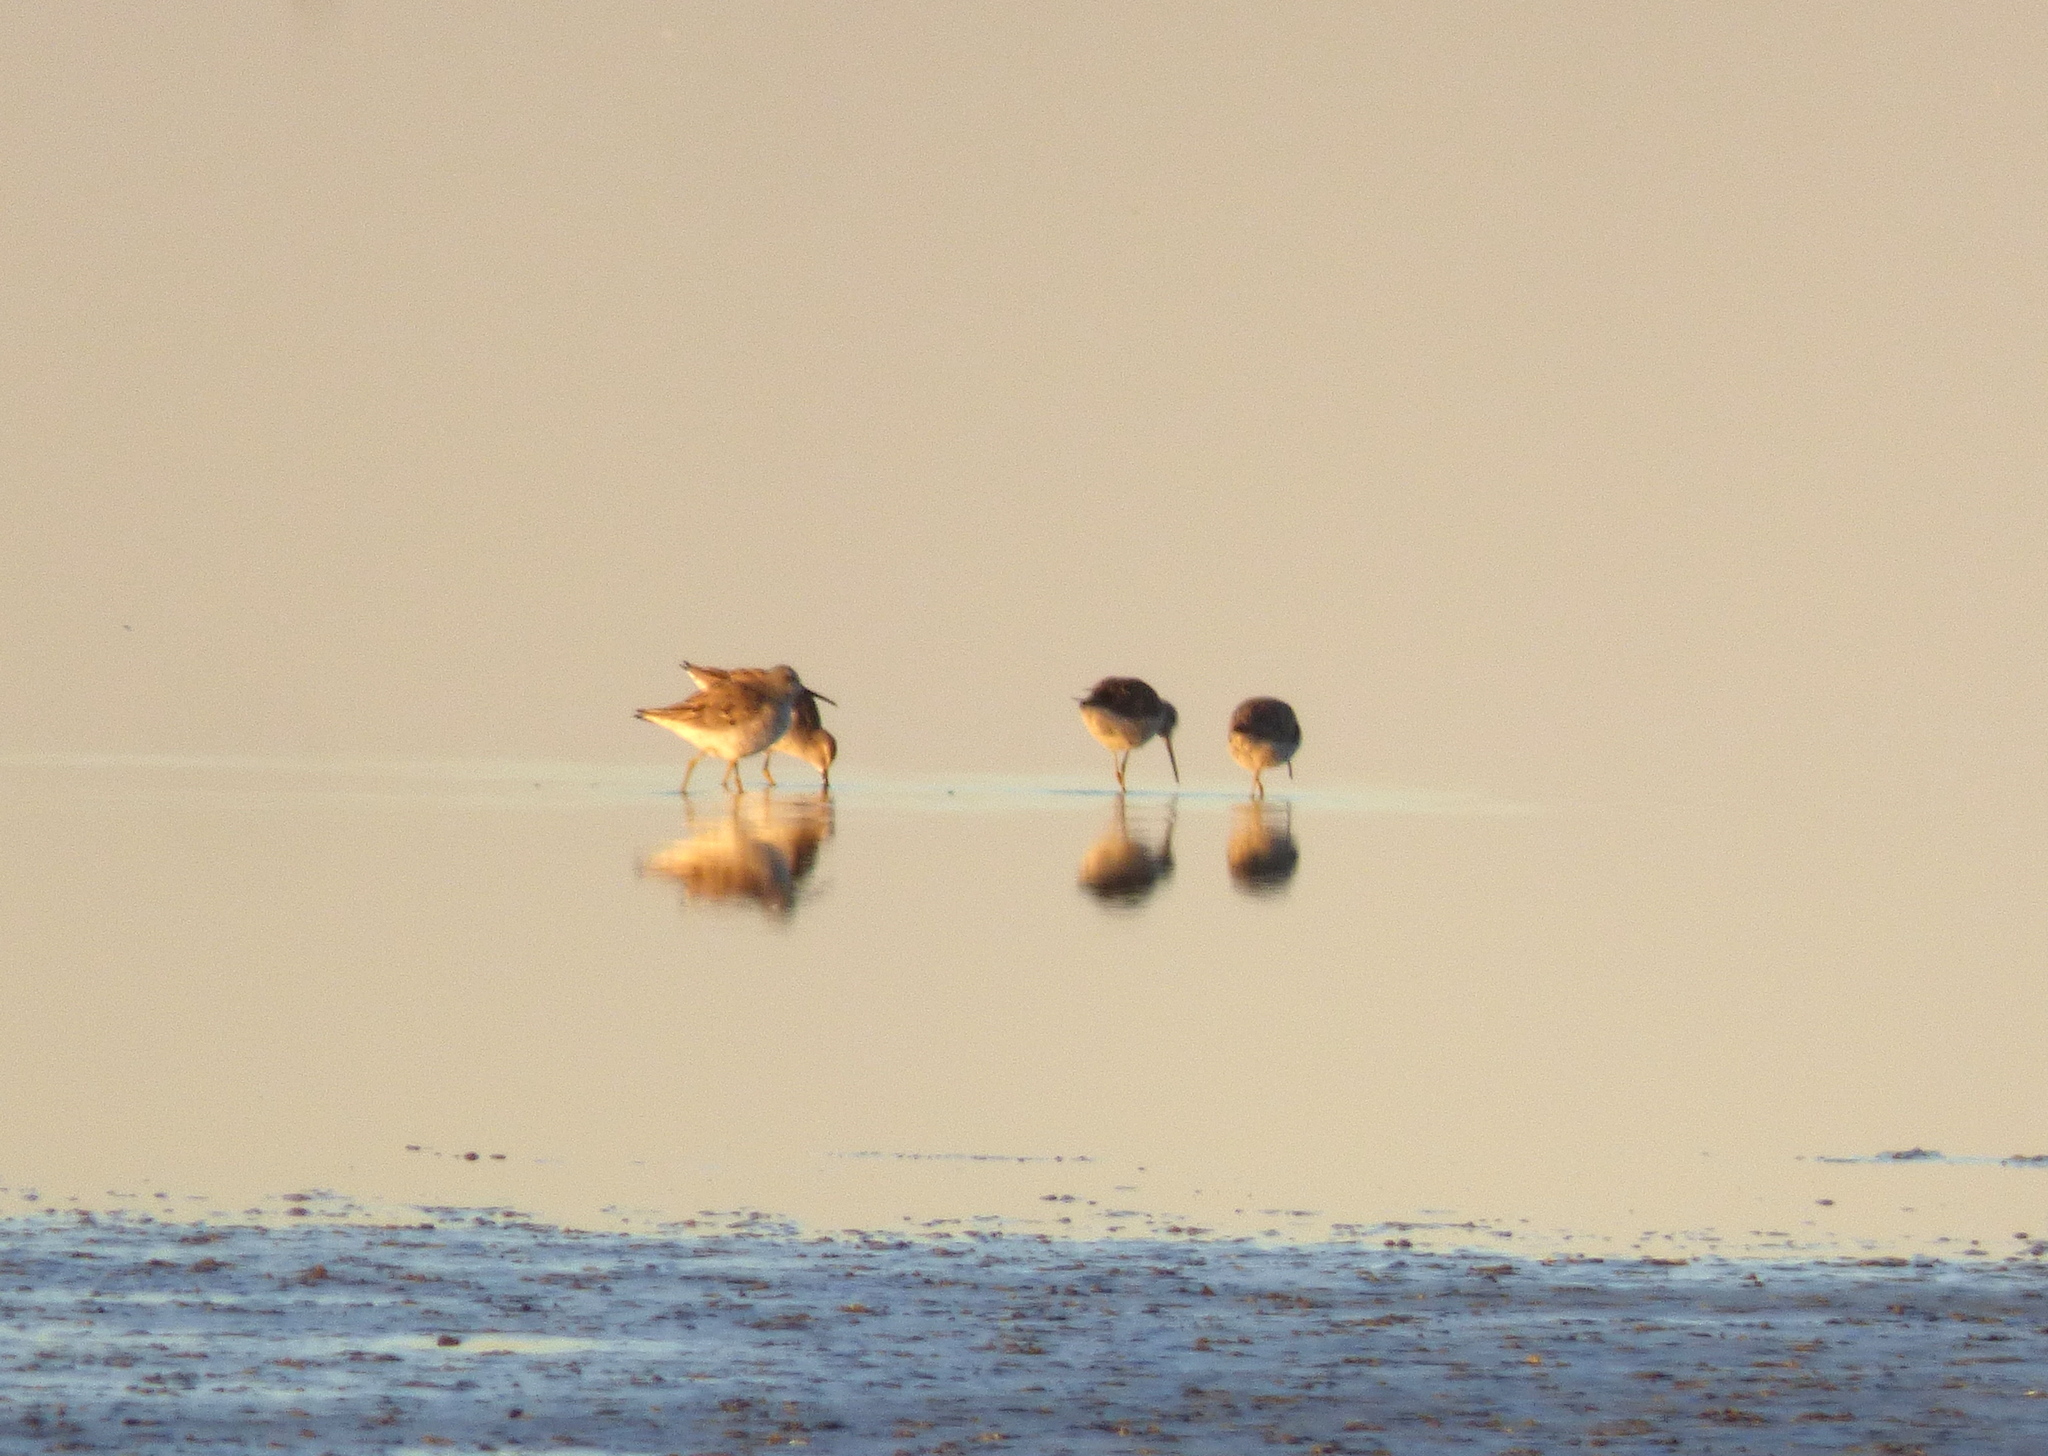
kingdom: Animalia
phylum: Chordata
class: Aves
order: Charadriiformes
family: Scolopacidae
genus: Calidris
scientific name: Calidris himantopus
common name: Stilt sandpiper
